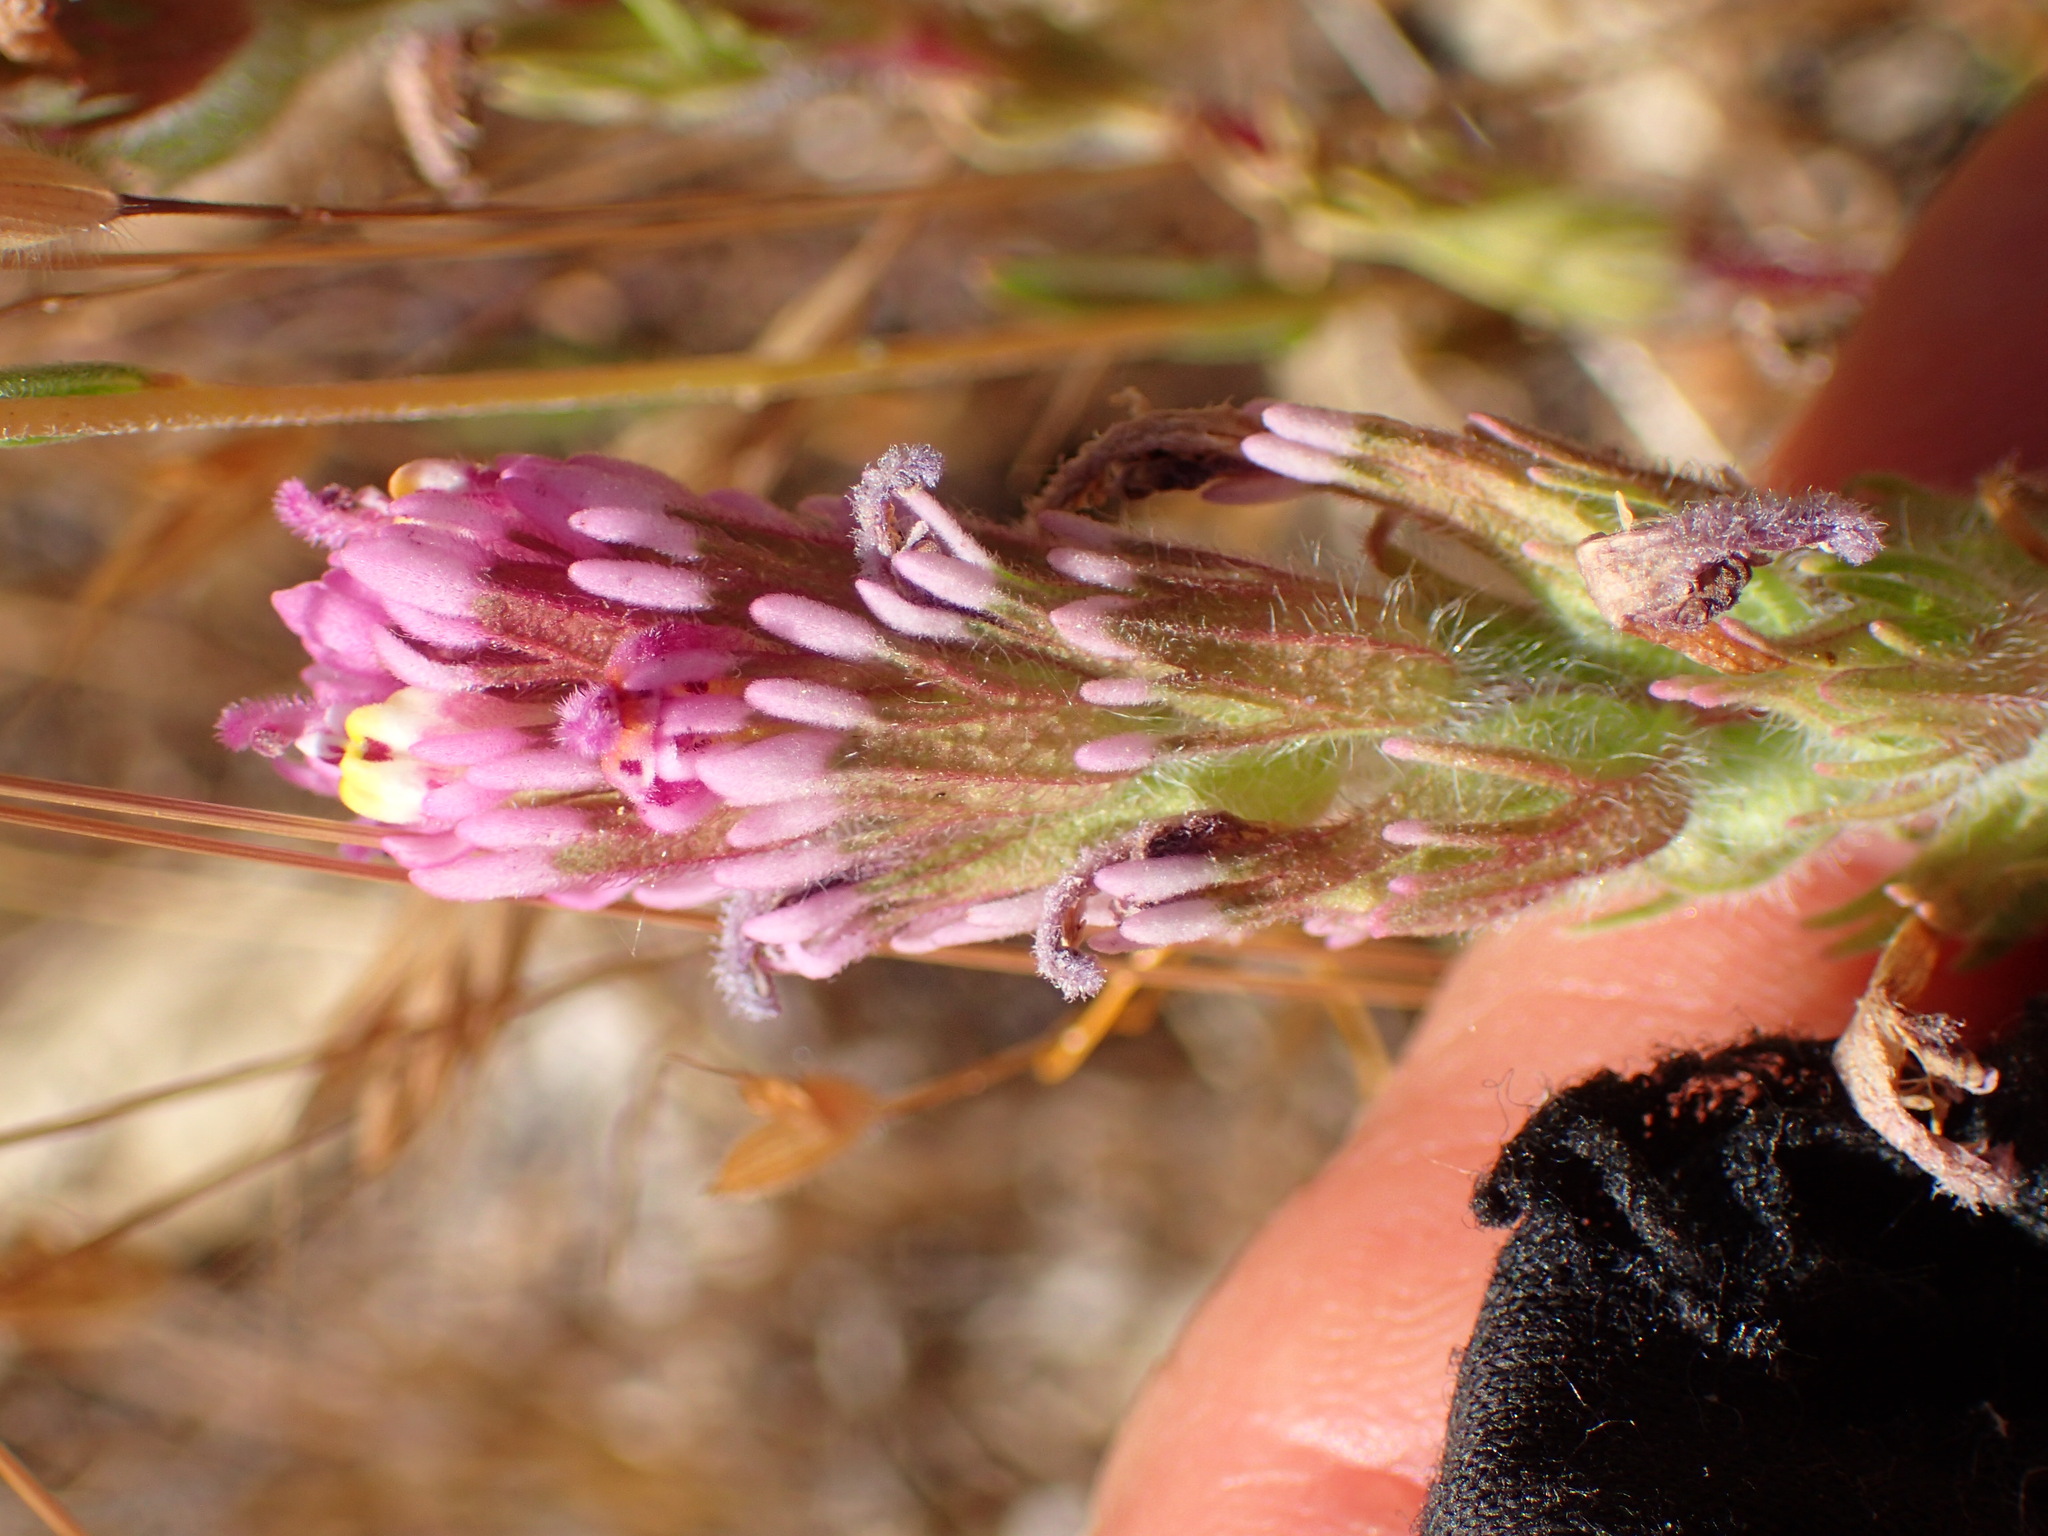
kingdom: Plantae
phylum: Tracheophyta
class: Magnoliopsida
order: Lamiales
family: Orobanchaceae
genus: Castilleja
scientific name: Castilleja exserta
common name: Purple owl-clover
